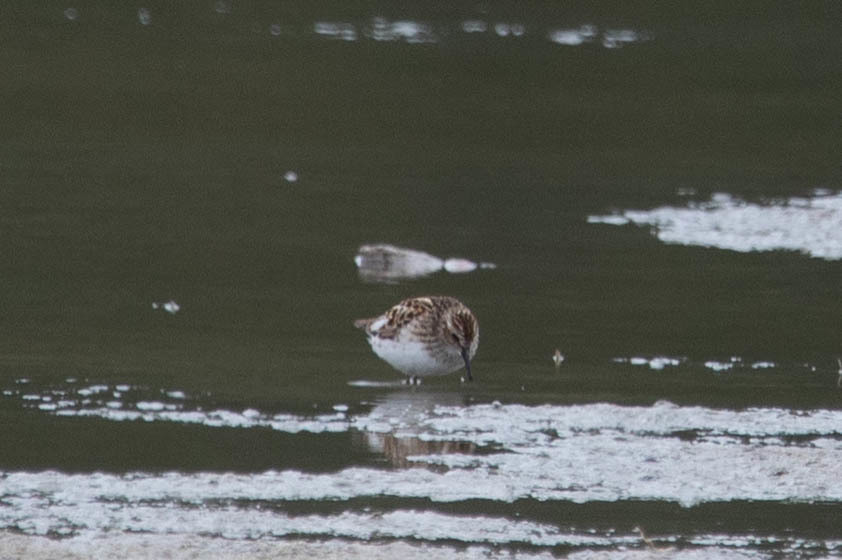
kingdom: Animalia
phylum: Chordata
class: Aves
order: Charadriiformes
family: Scolopacidae
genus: Calidris
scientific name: Calidris minutilla
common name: Least sandpiper
